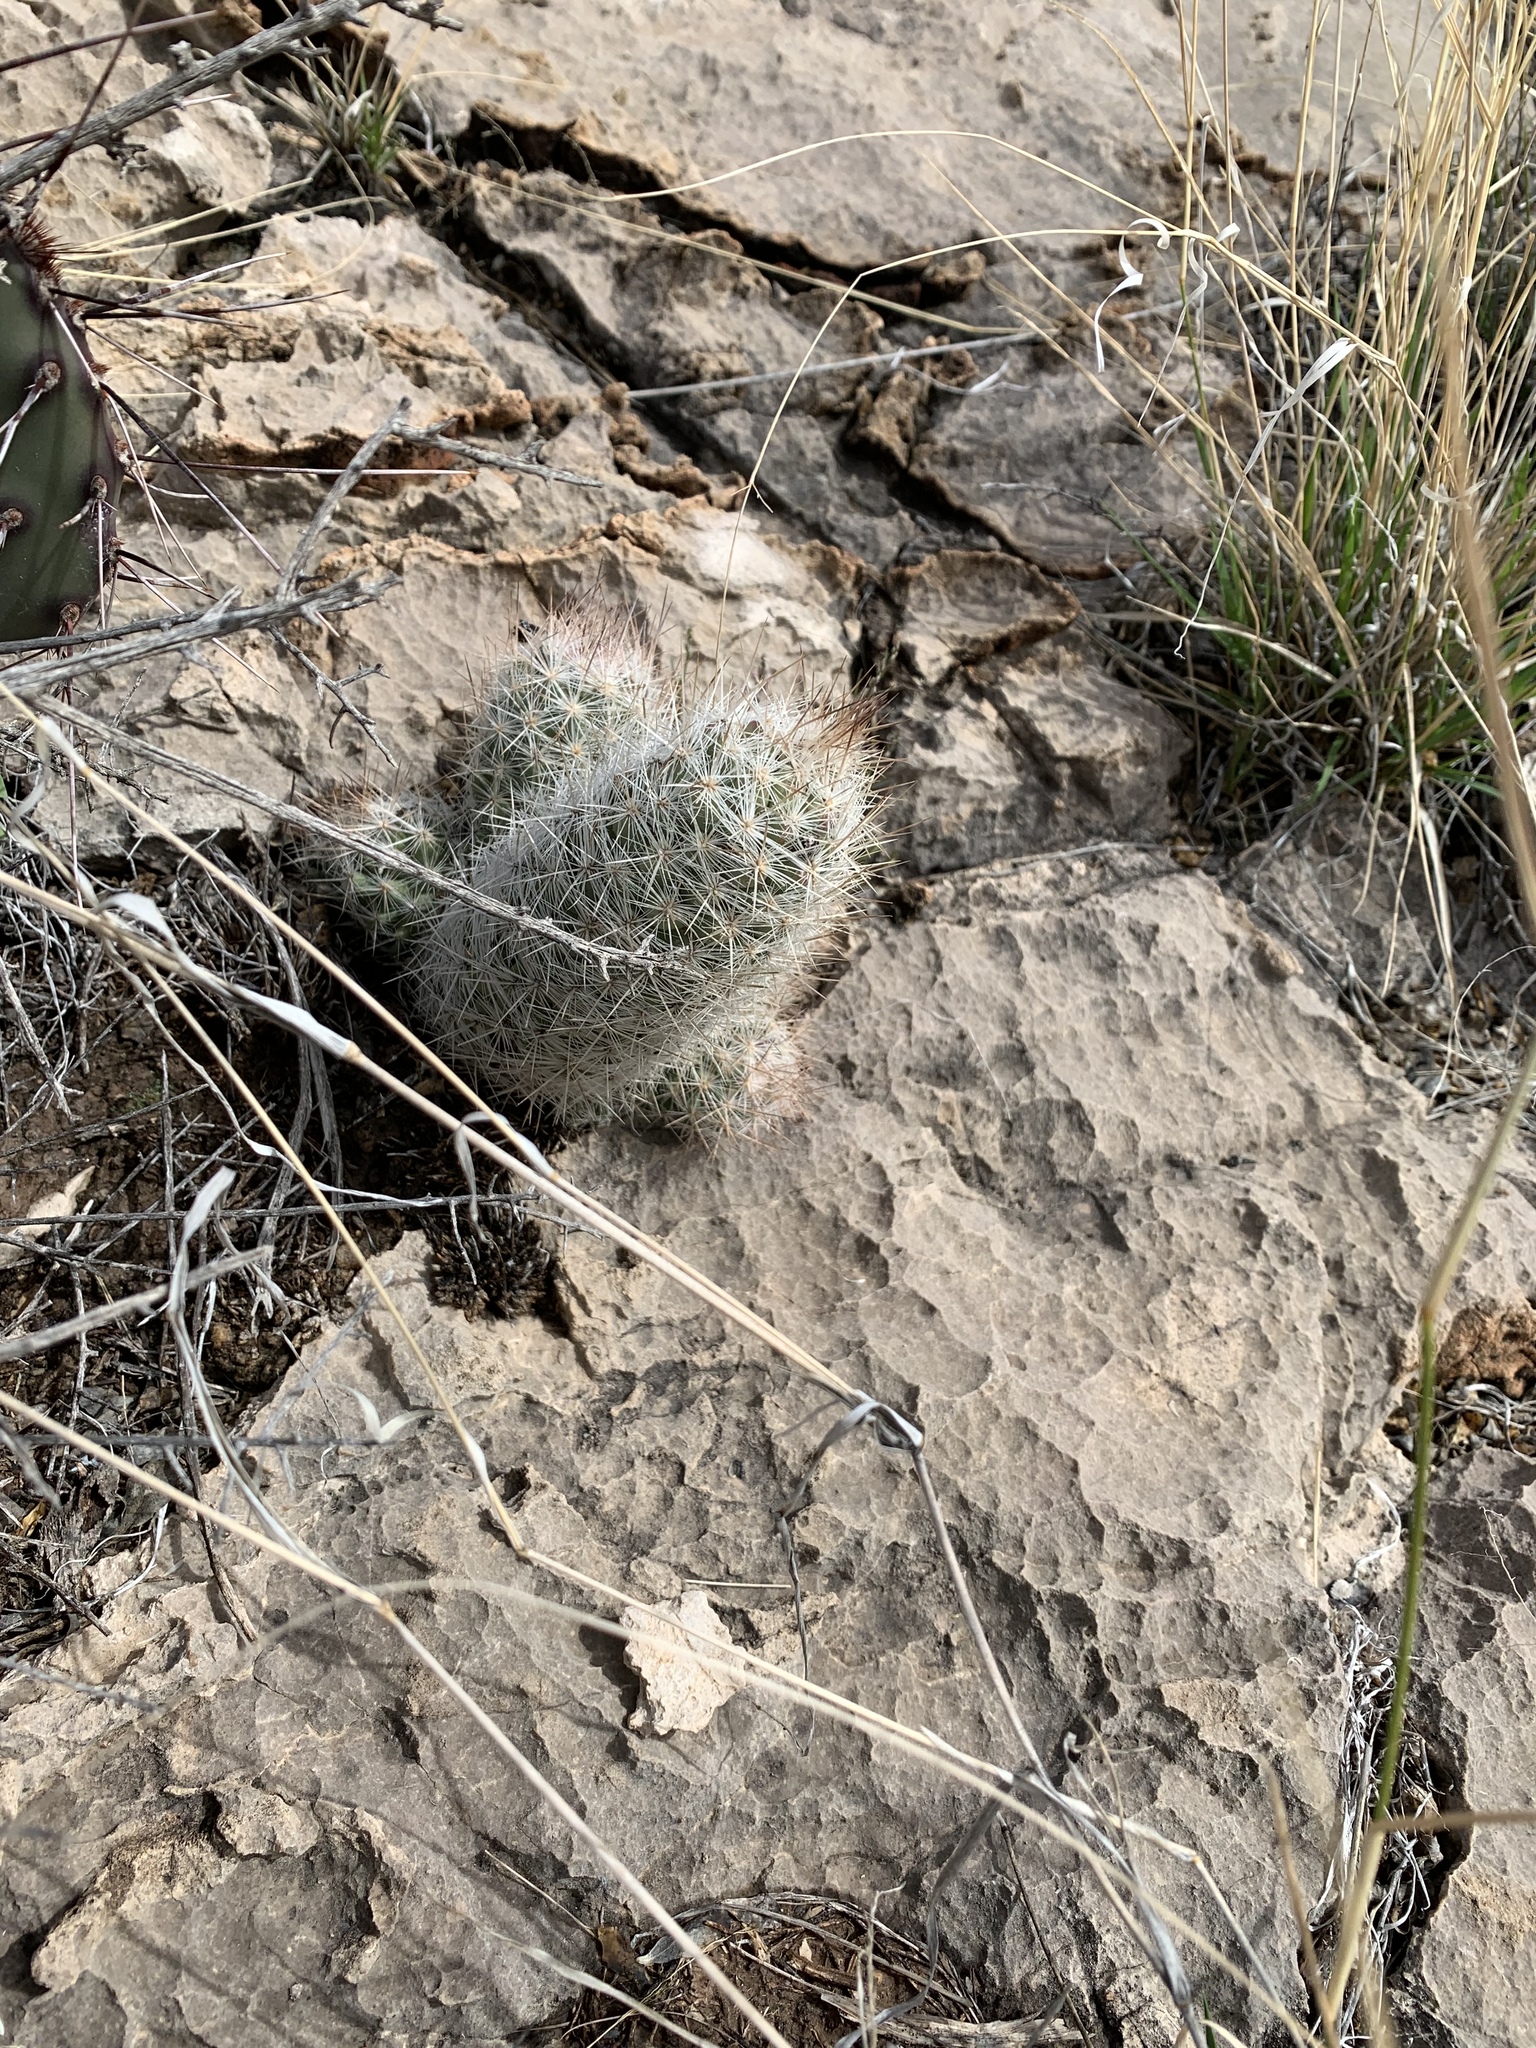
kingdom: Plantae
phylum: Tracheophyta
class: Magnoliopsida
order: Caryophyllales
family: Cactaceae
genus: Pelecyphora
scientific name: Pelecyphora tuberculosa
